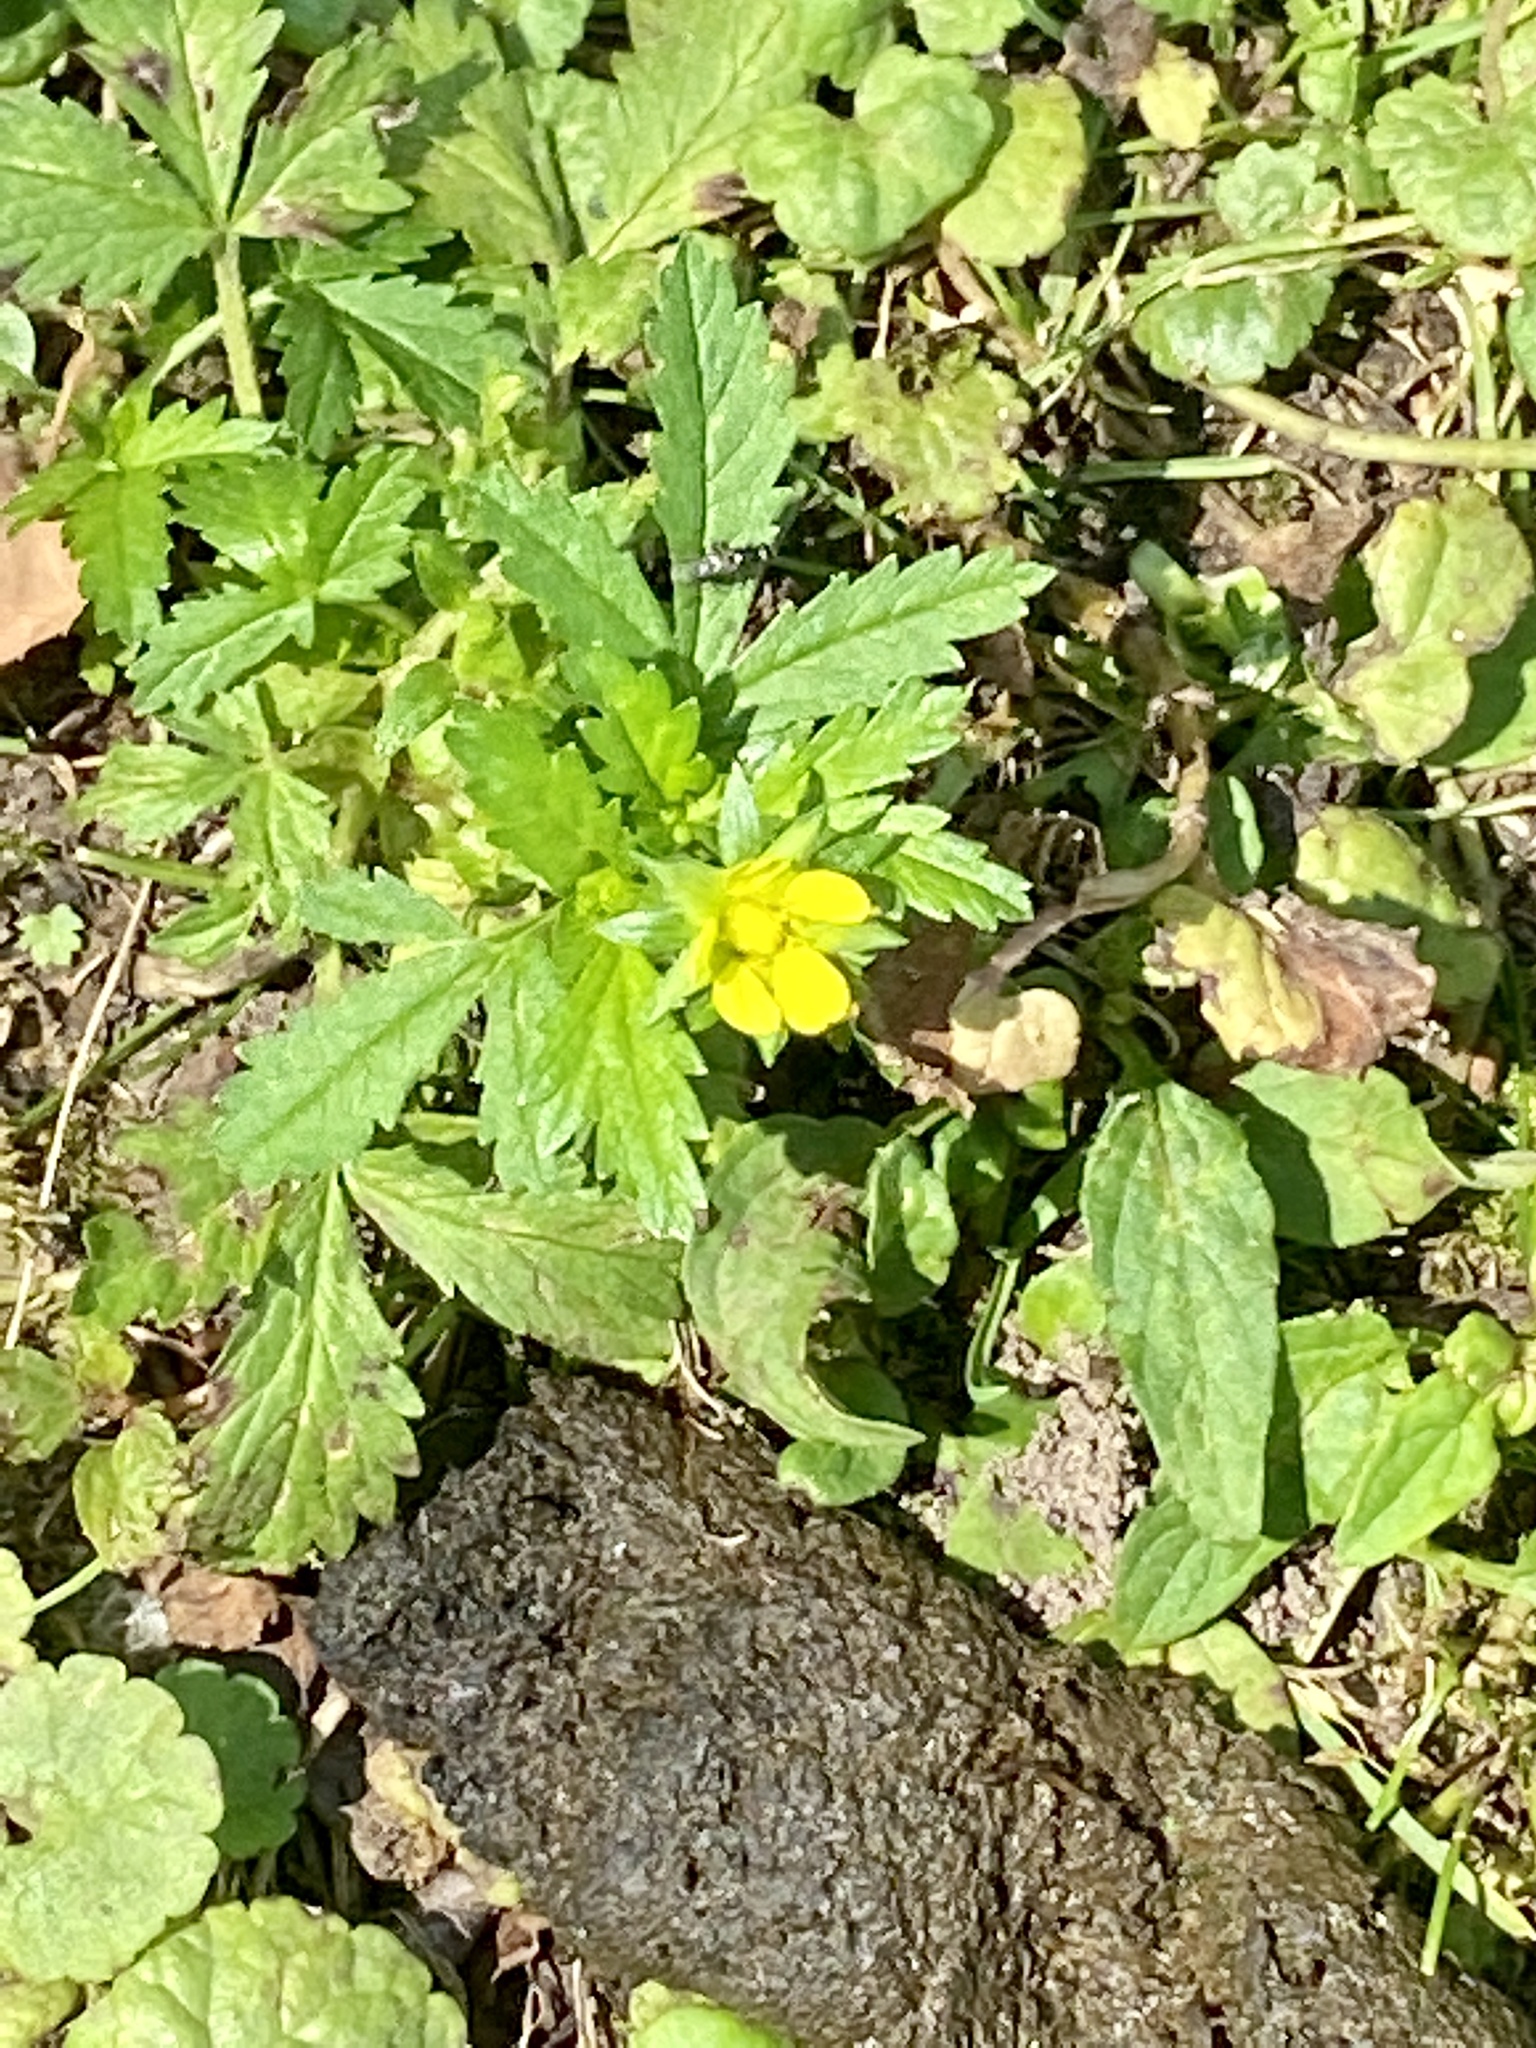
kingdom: Plantae
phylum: Tracheophyta
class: Magnoliopsida
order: Rosales
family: Rosaceae
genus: Potentilla
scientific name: Potentilla norvegica
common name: Ternate-leaved cinquefoil
